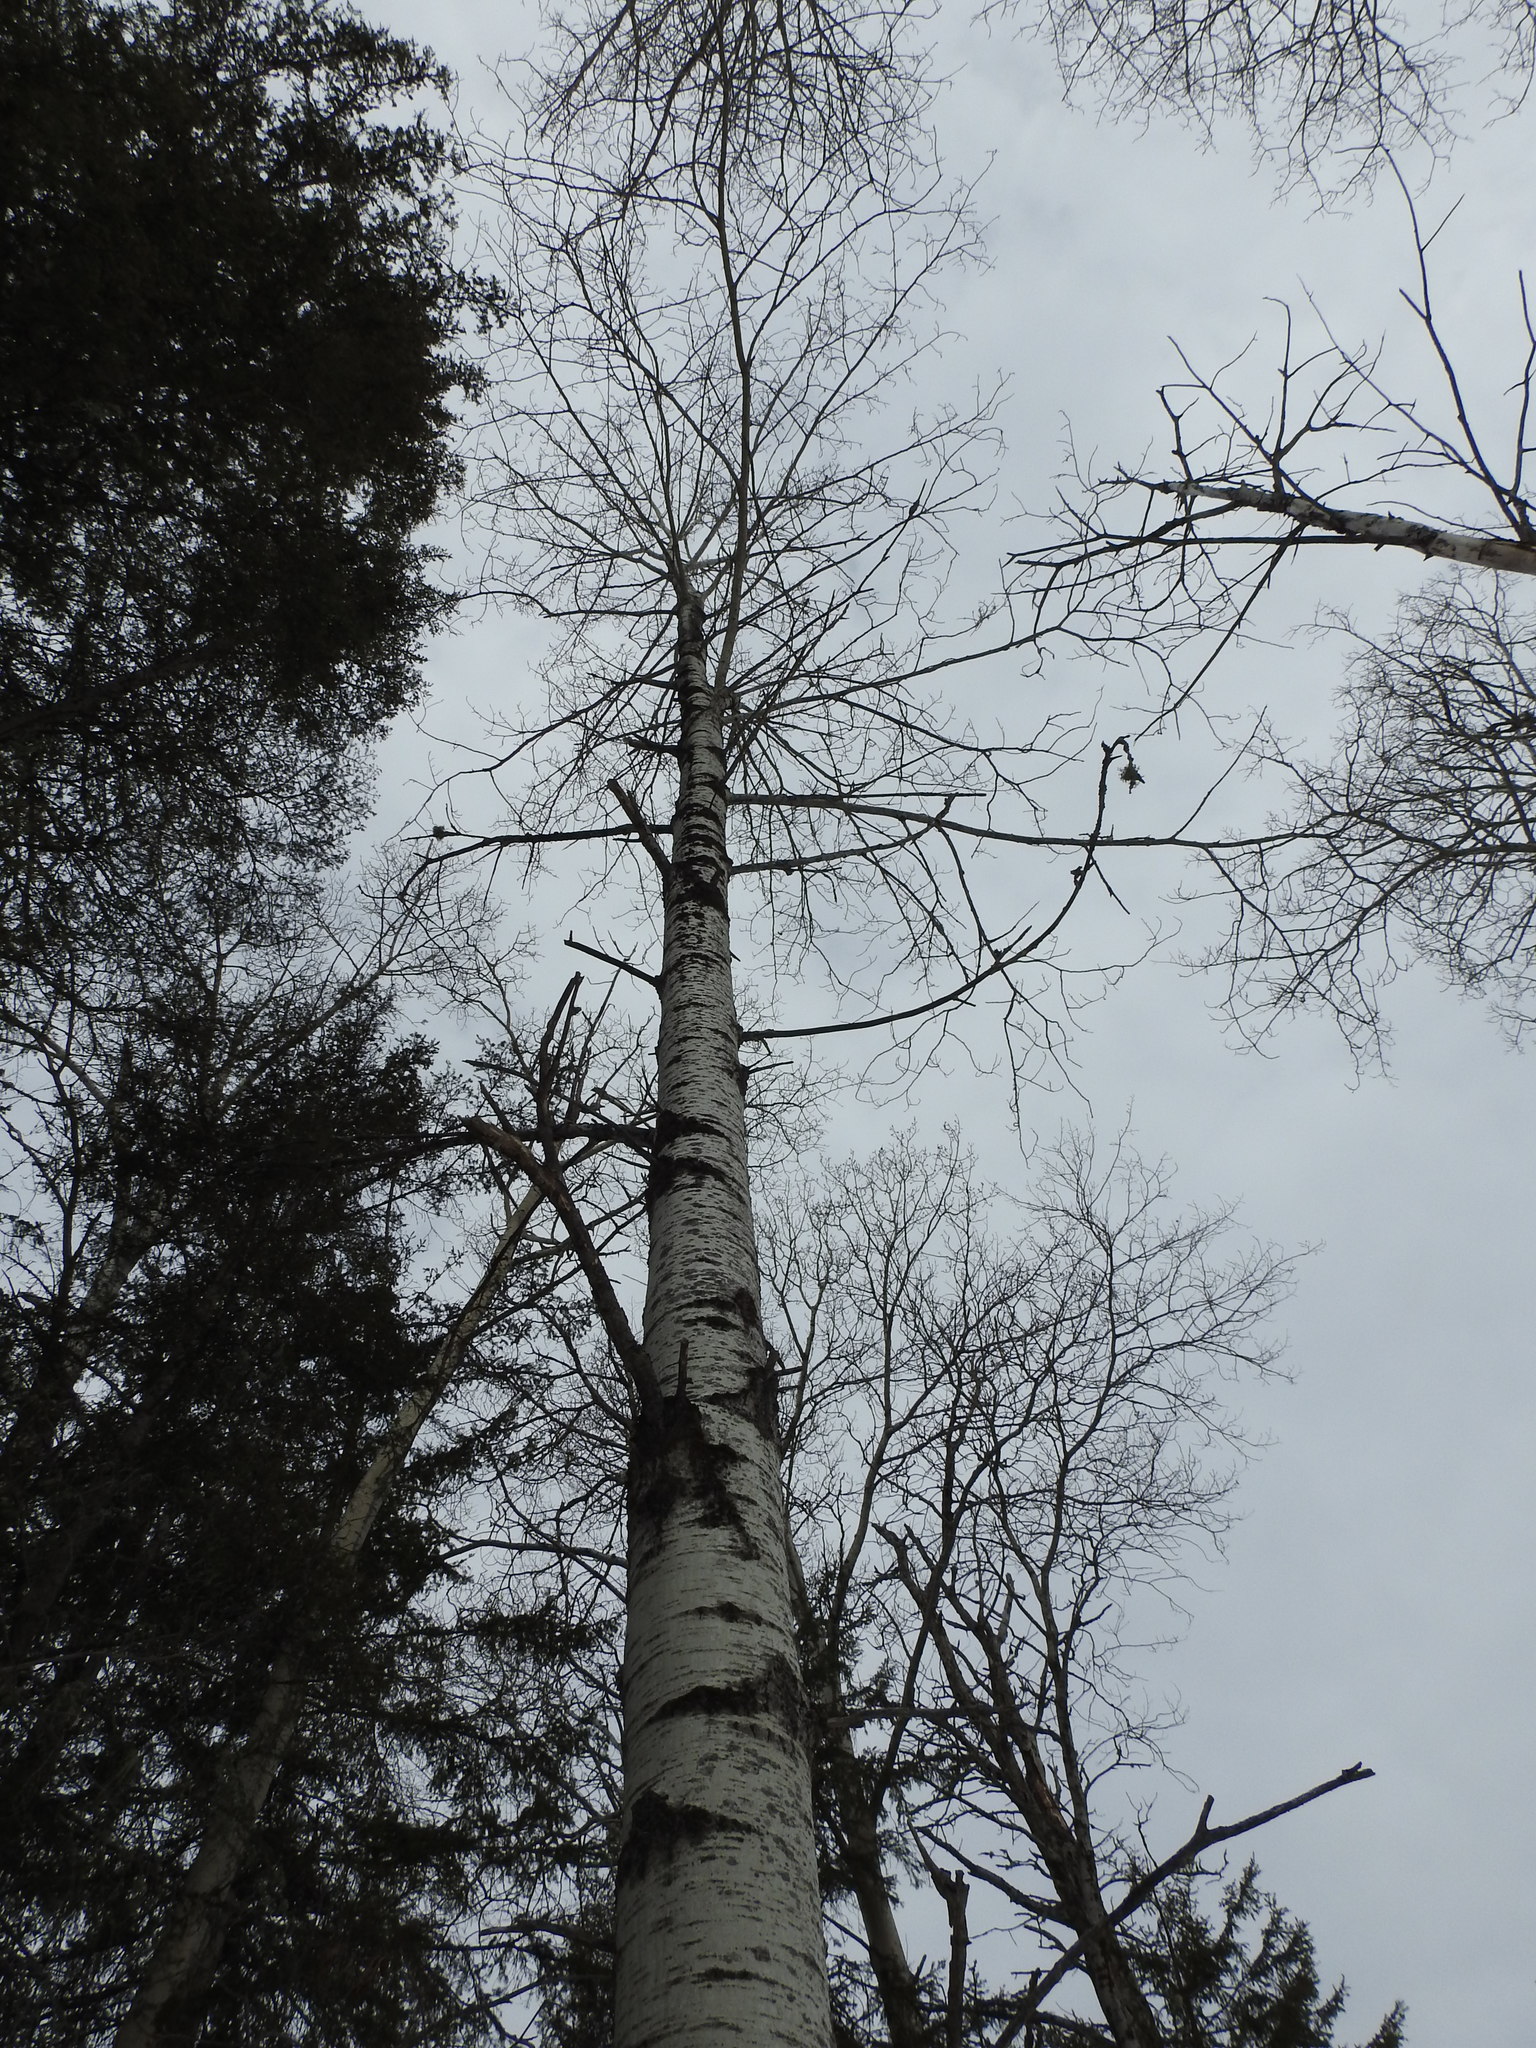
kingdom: Plantae
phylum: Tracheophyta
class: Magnoliopsida
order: Malpighiales
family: Salicaceae
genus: Populus
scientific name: Populus tremuloides
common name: Quaking aspen
